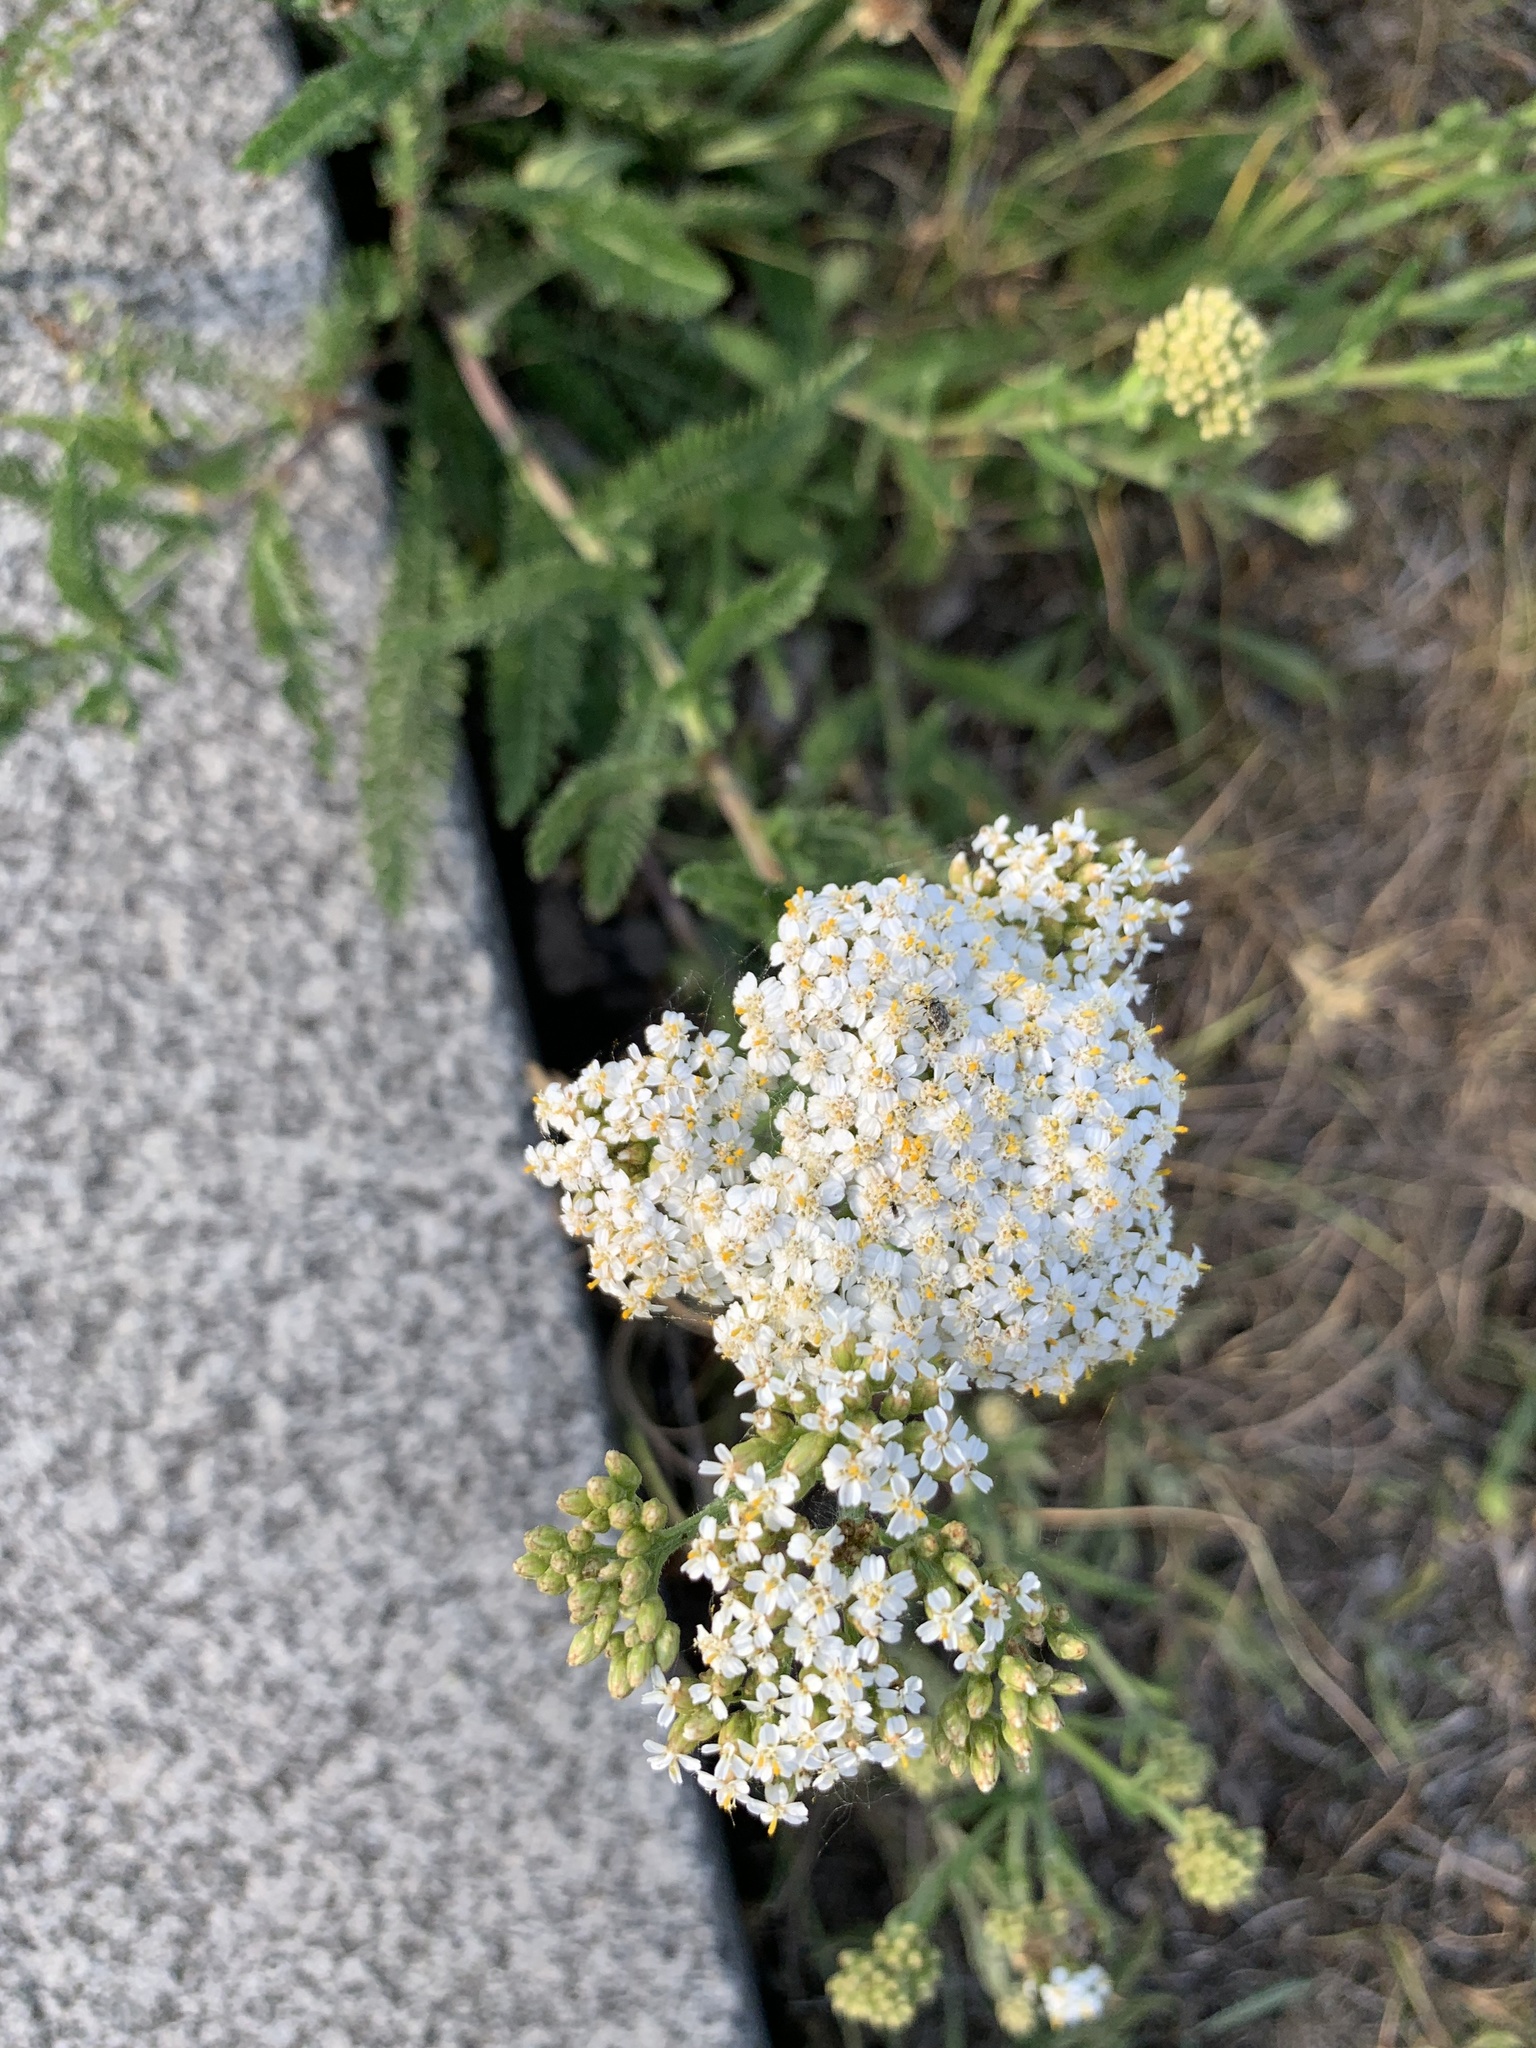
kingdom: Plantae
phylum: Tracheophyta
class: Magnoliopsida
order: Asterales
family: Asteraceae
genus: Achillea
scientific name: Achillea millefolium
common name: Yarrow
